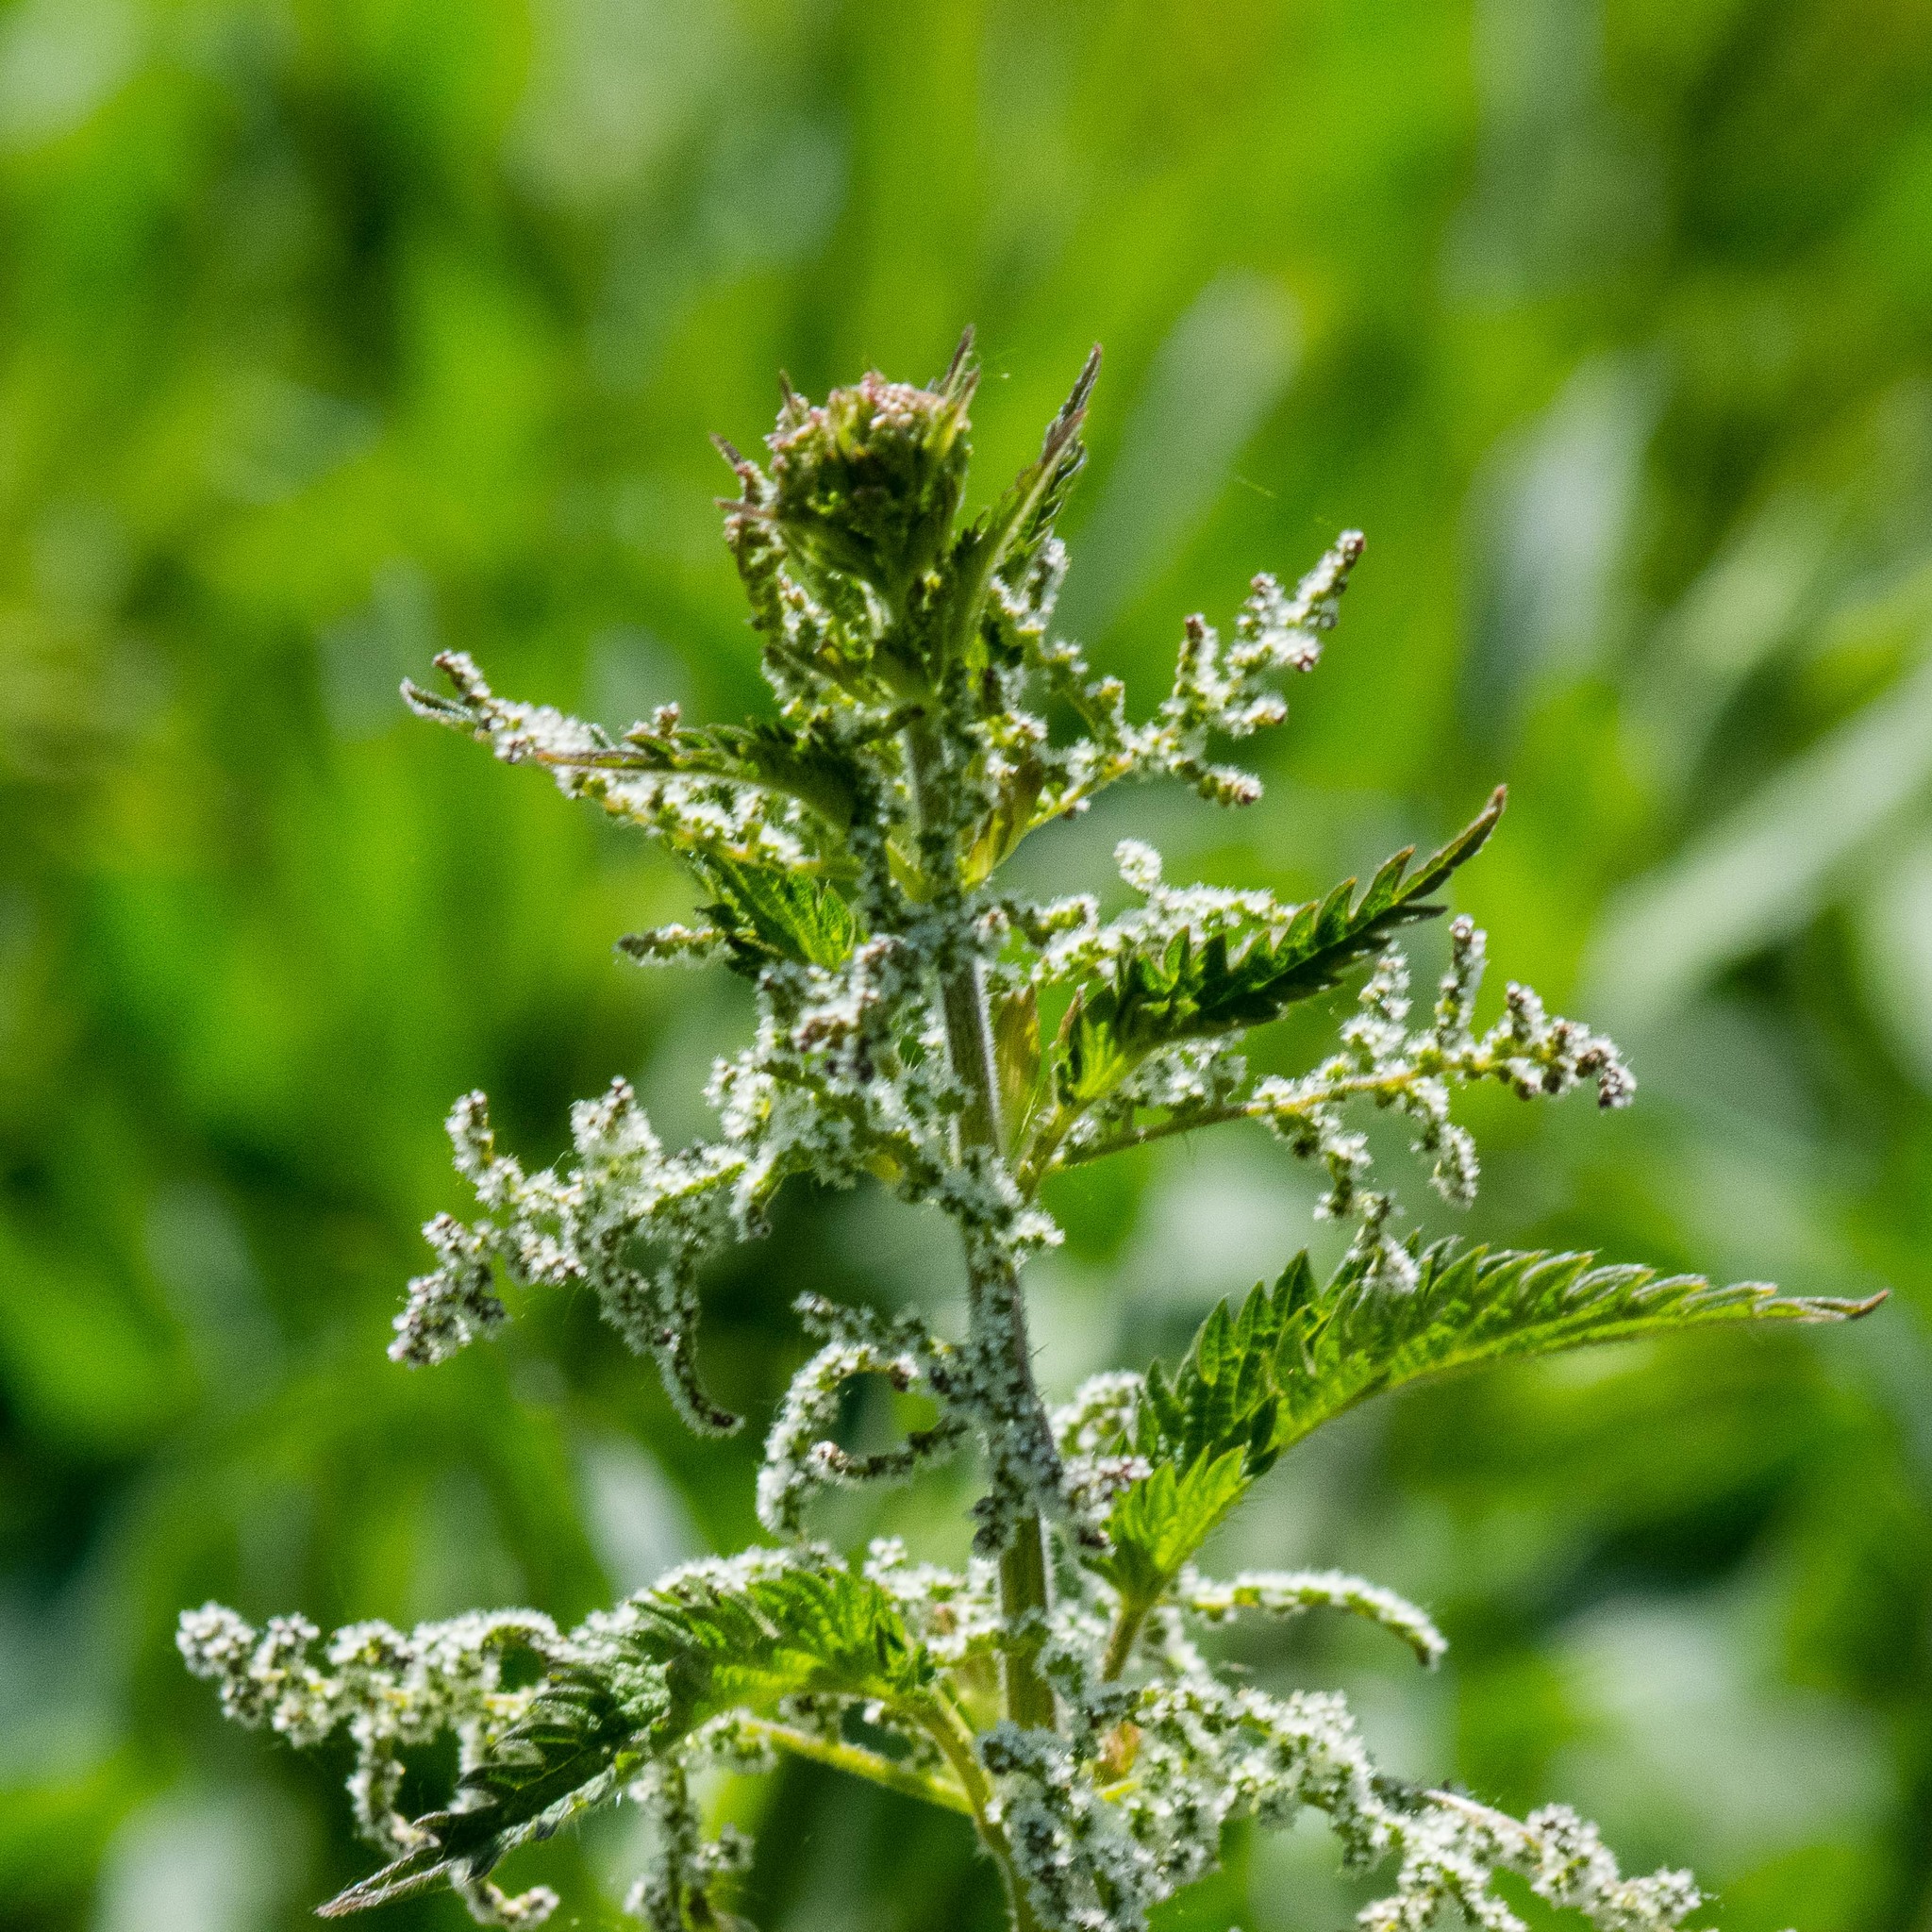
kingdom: Plantae
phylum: Tracheophyta
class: Magnoliopsida
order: Rosales
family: Urticaceae
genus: Urtica
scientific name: Urtica dioica
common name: Common nettle
